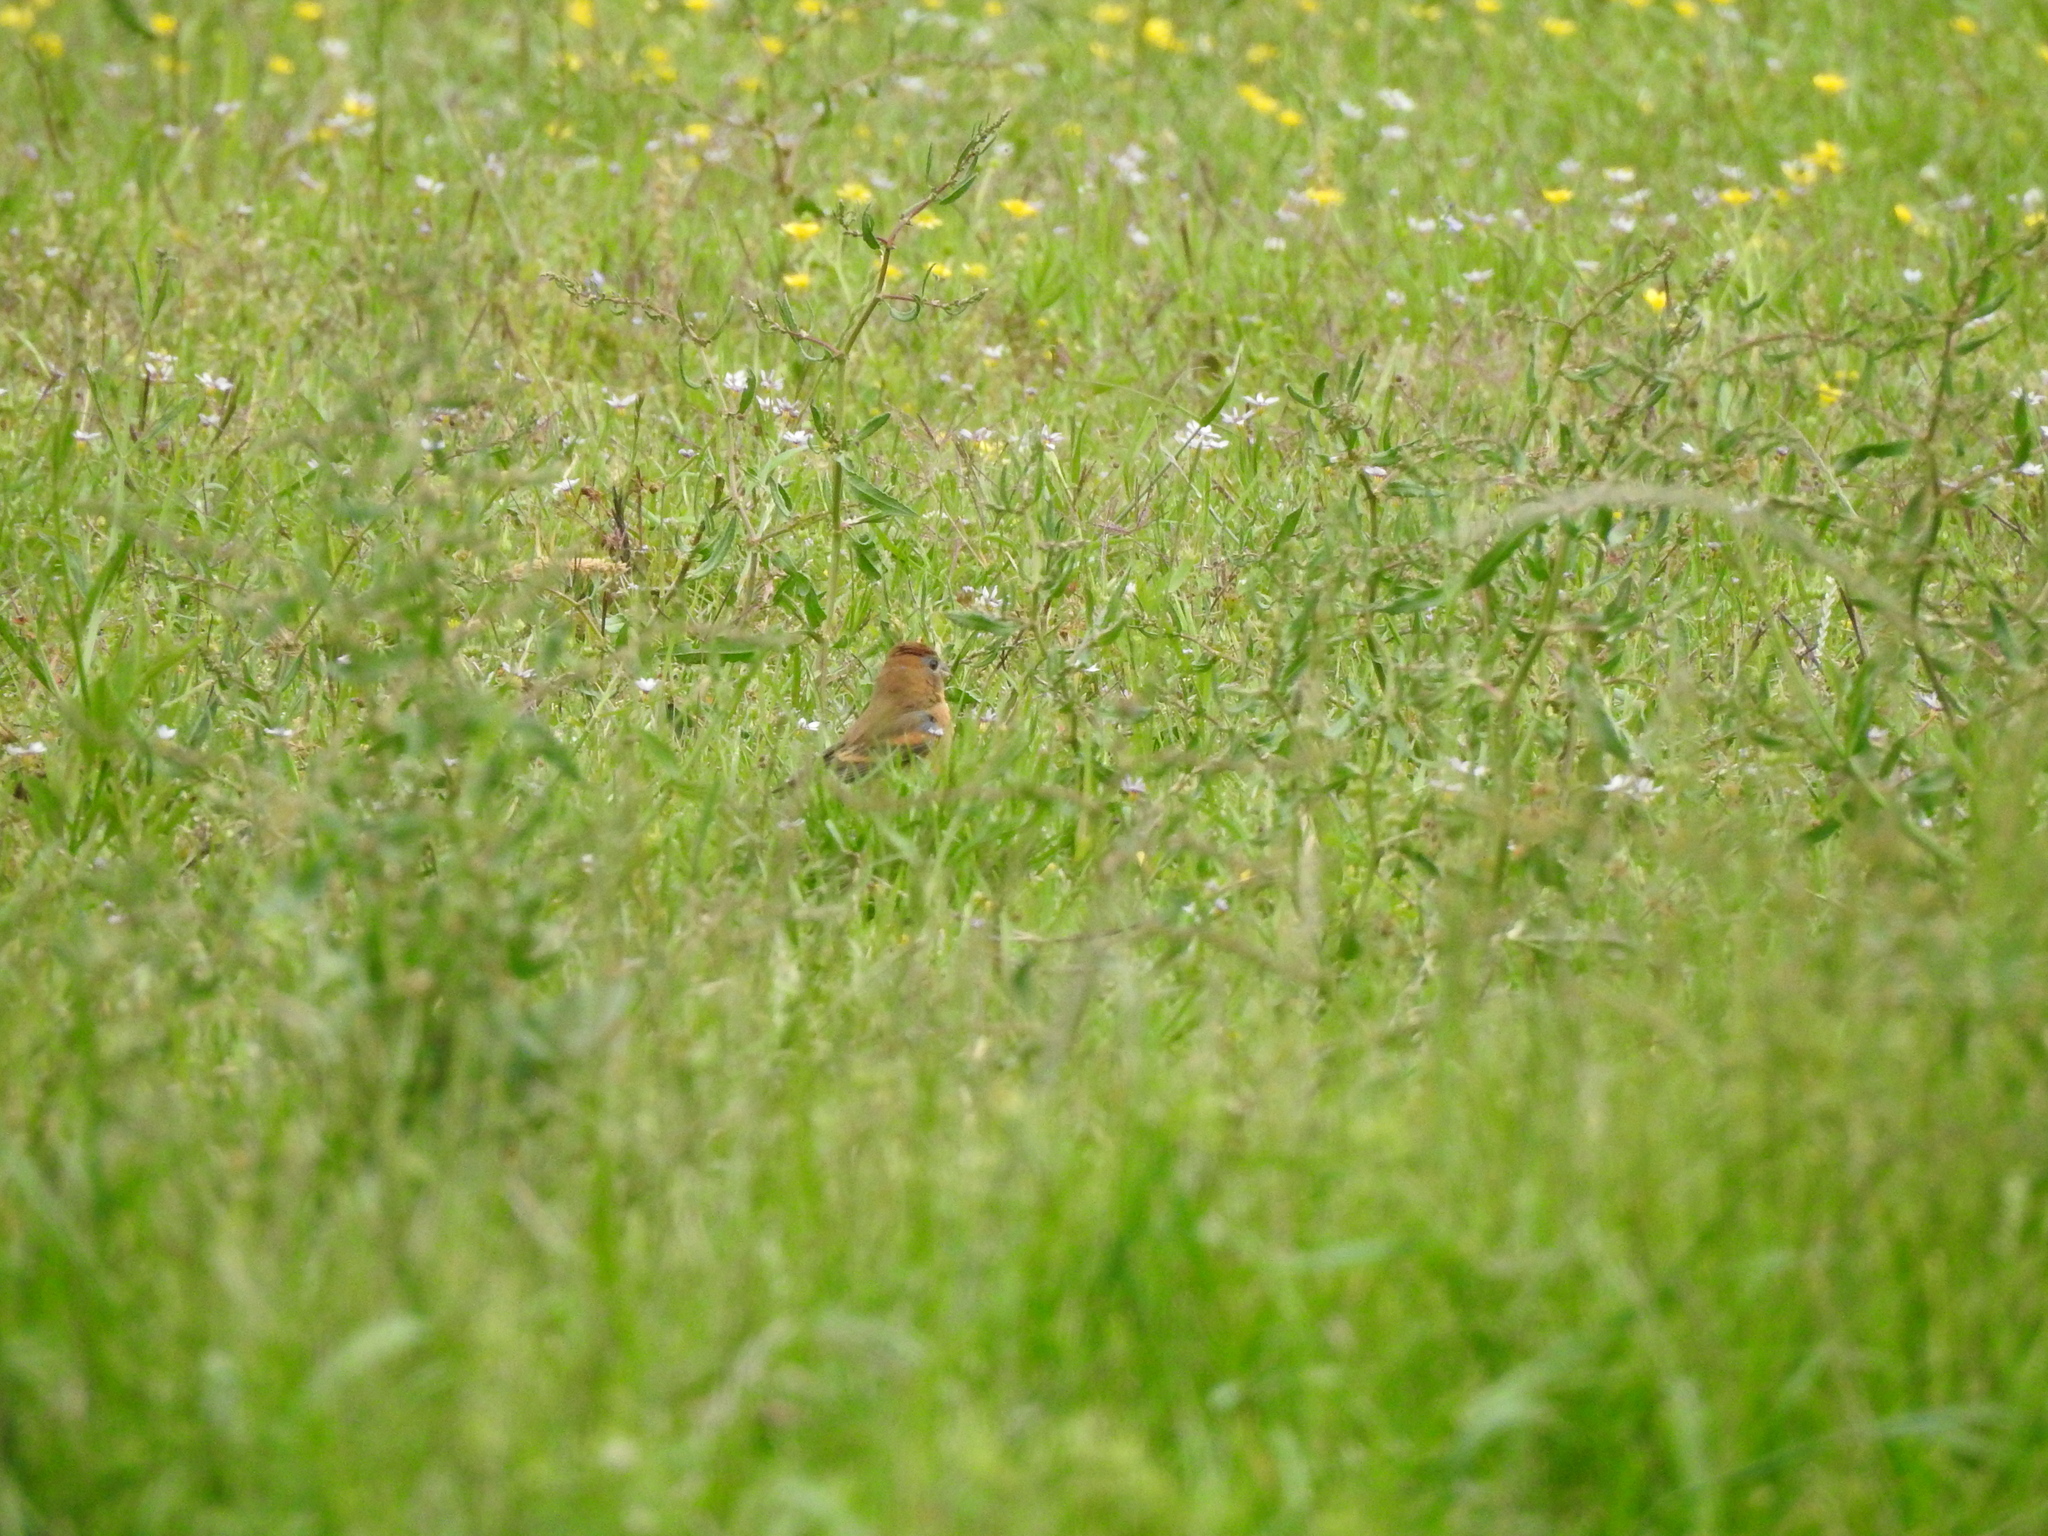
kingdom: Animalia
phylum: Chordata
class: Aves
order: Passeriformes
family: Cardinalidae
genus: Passerina
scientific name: Passerina caerulea
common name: Blue grosbeak
